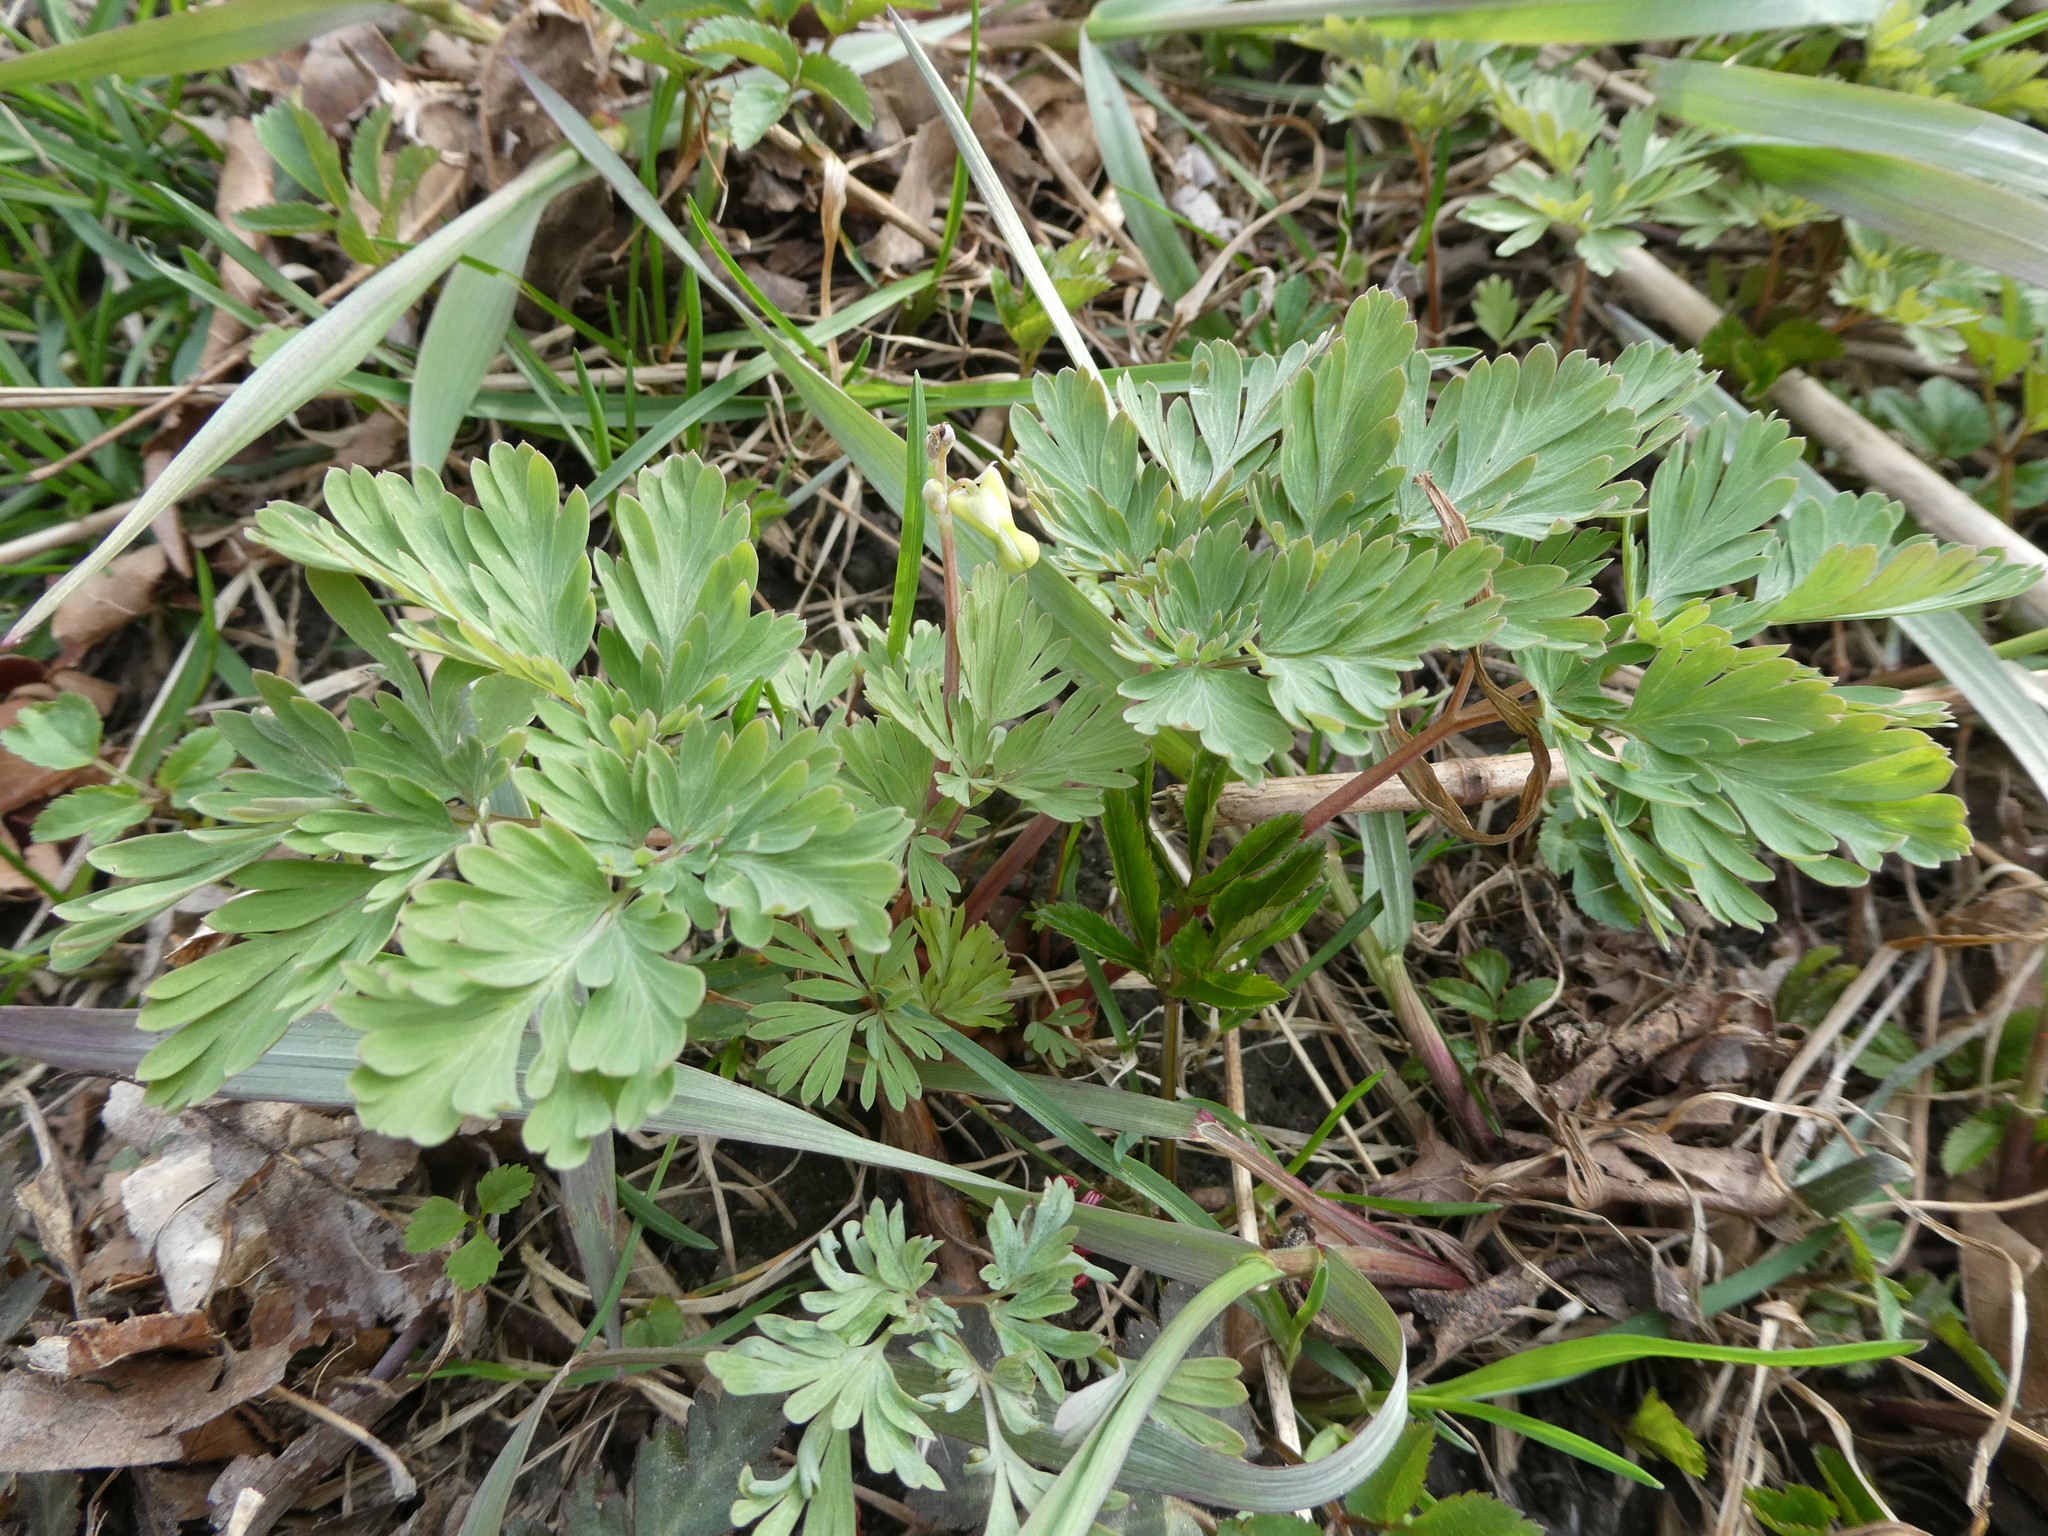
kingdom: Plantae
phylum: Tracheophyta
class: Magnoliopsida
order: Ranunculales
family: Papaveraceae
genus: Dicentra
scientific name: Dicentra cucullaria
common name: Dutchman's breeches
